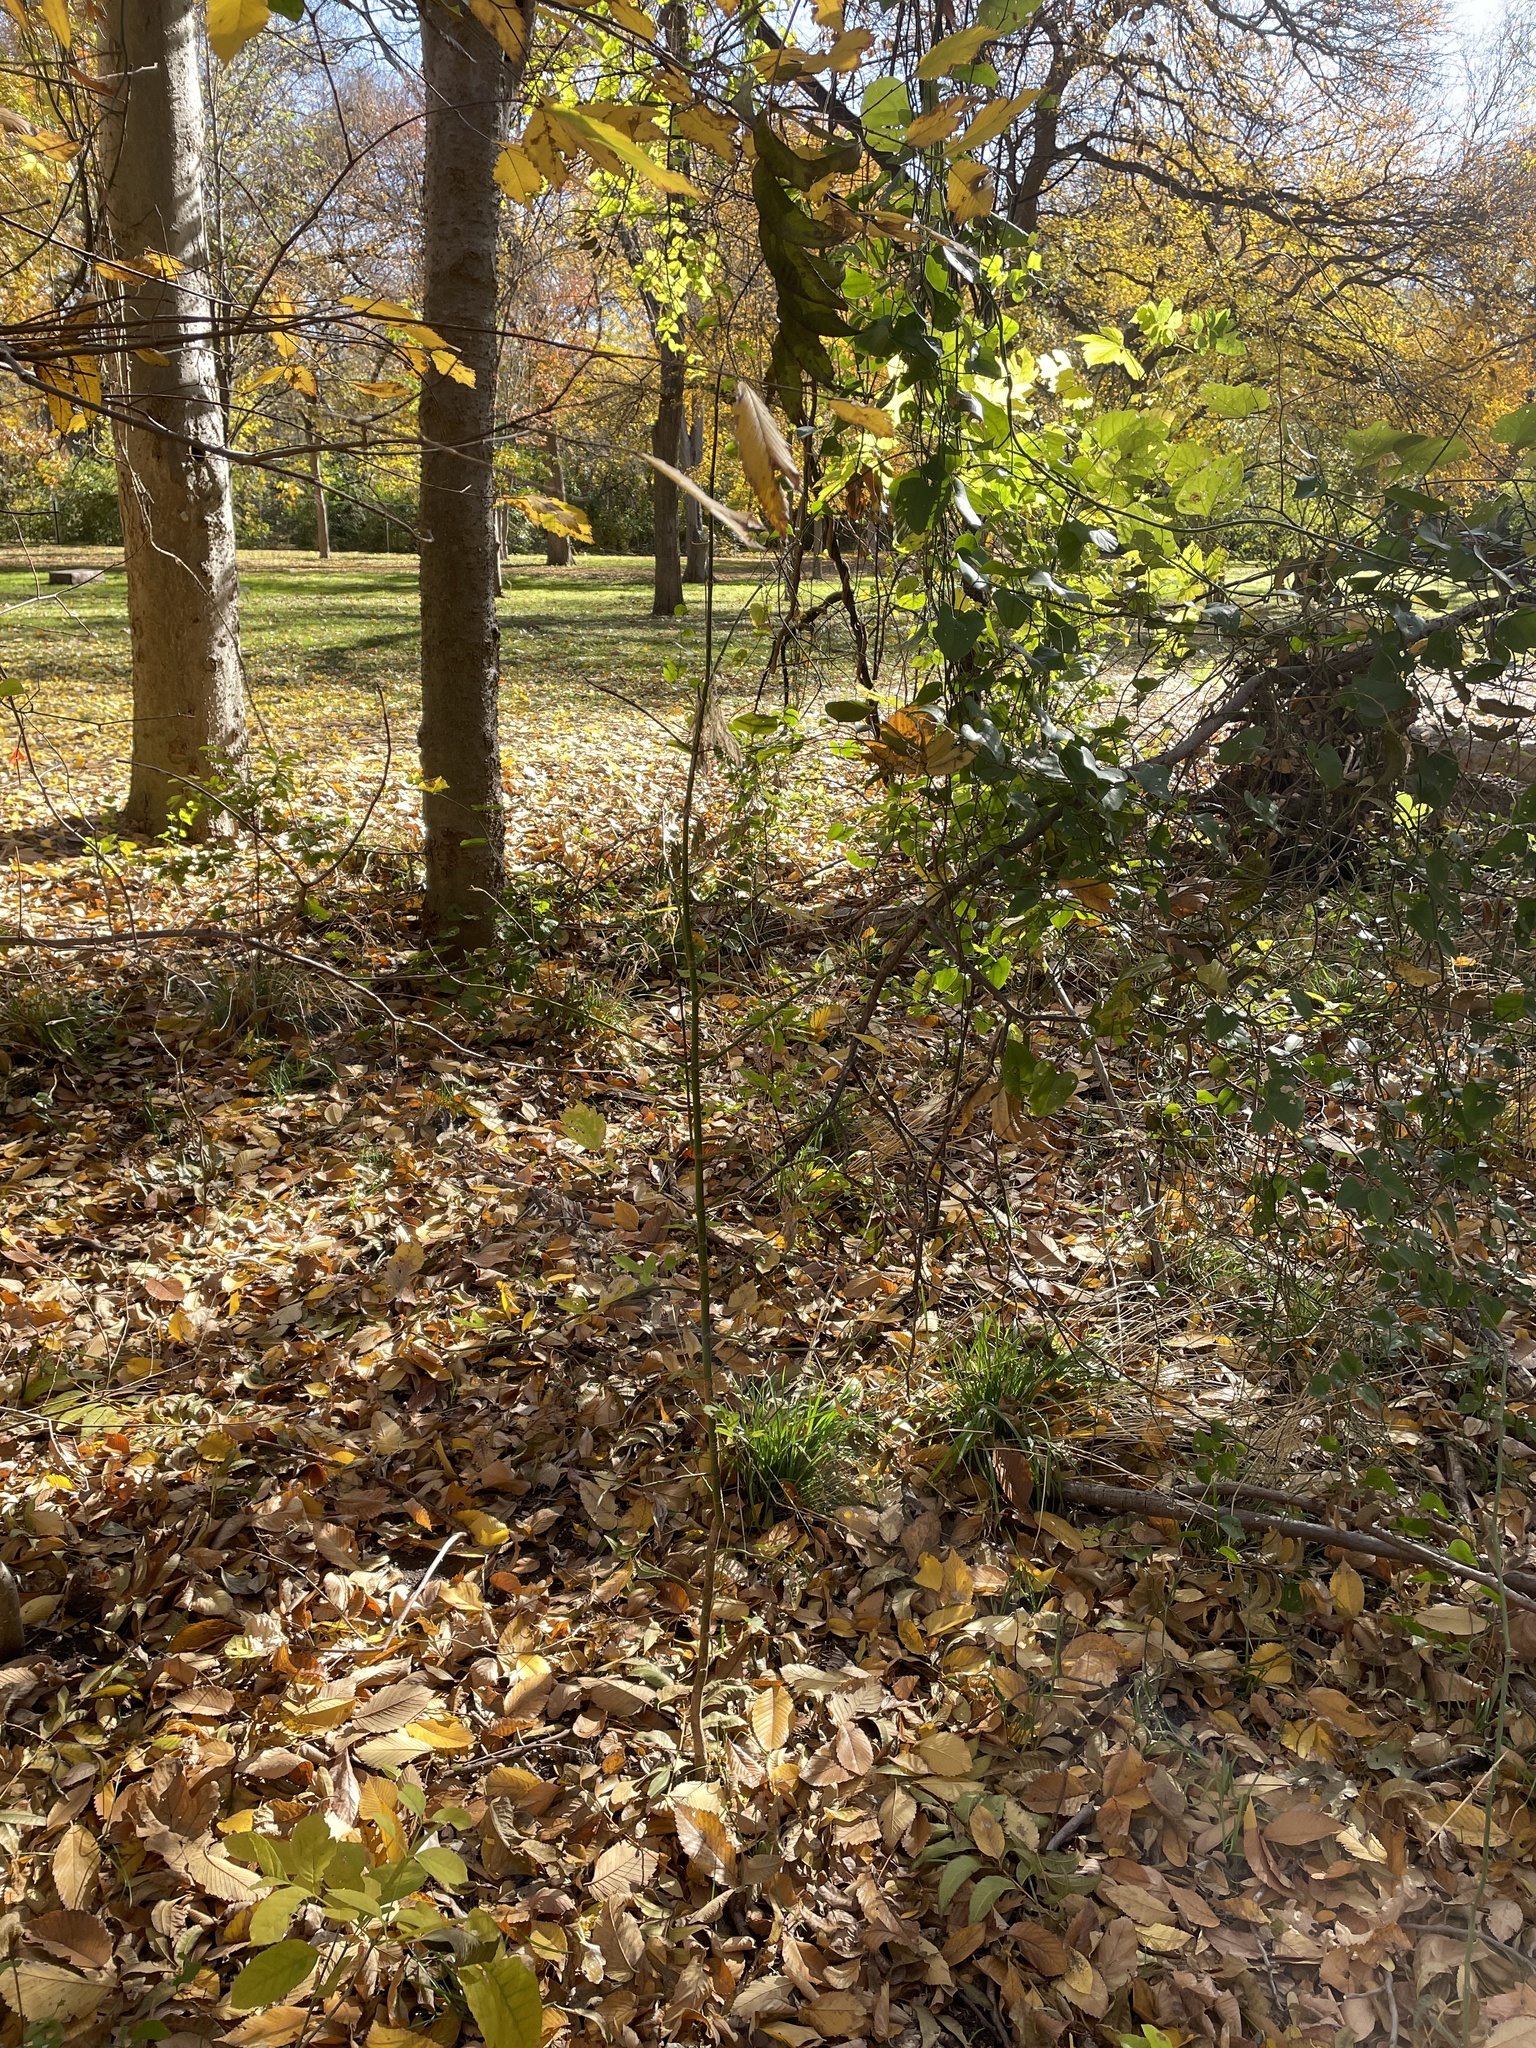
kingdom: Plantae
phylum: Tracheophyta
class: Magnoliopsida
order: Sapindales
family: Sapindaceae
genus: Acer
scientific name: Acer negundo
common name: Ashleaf maple
